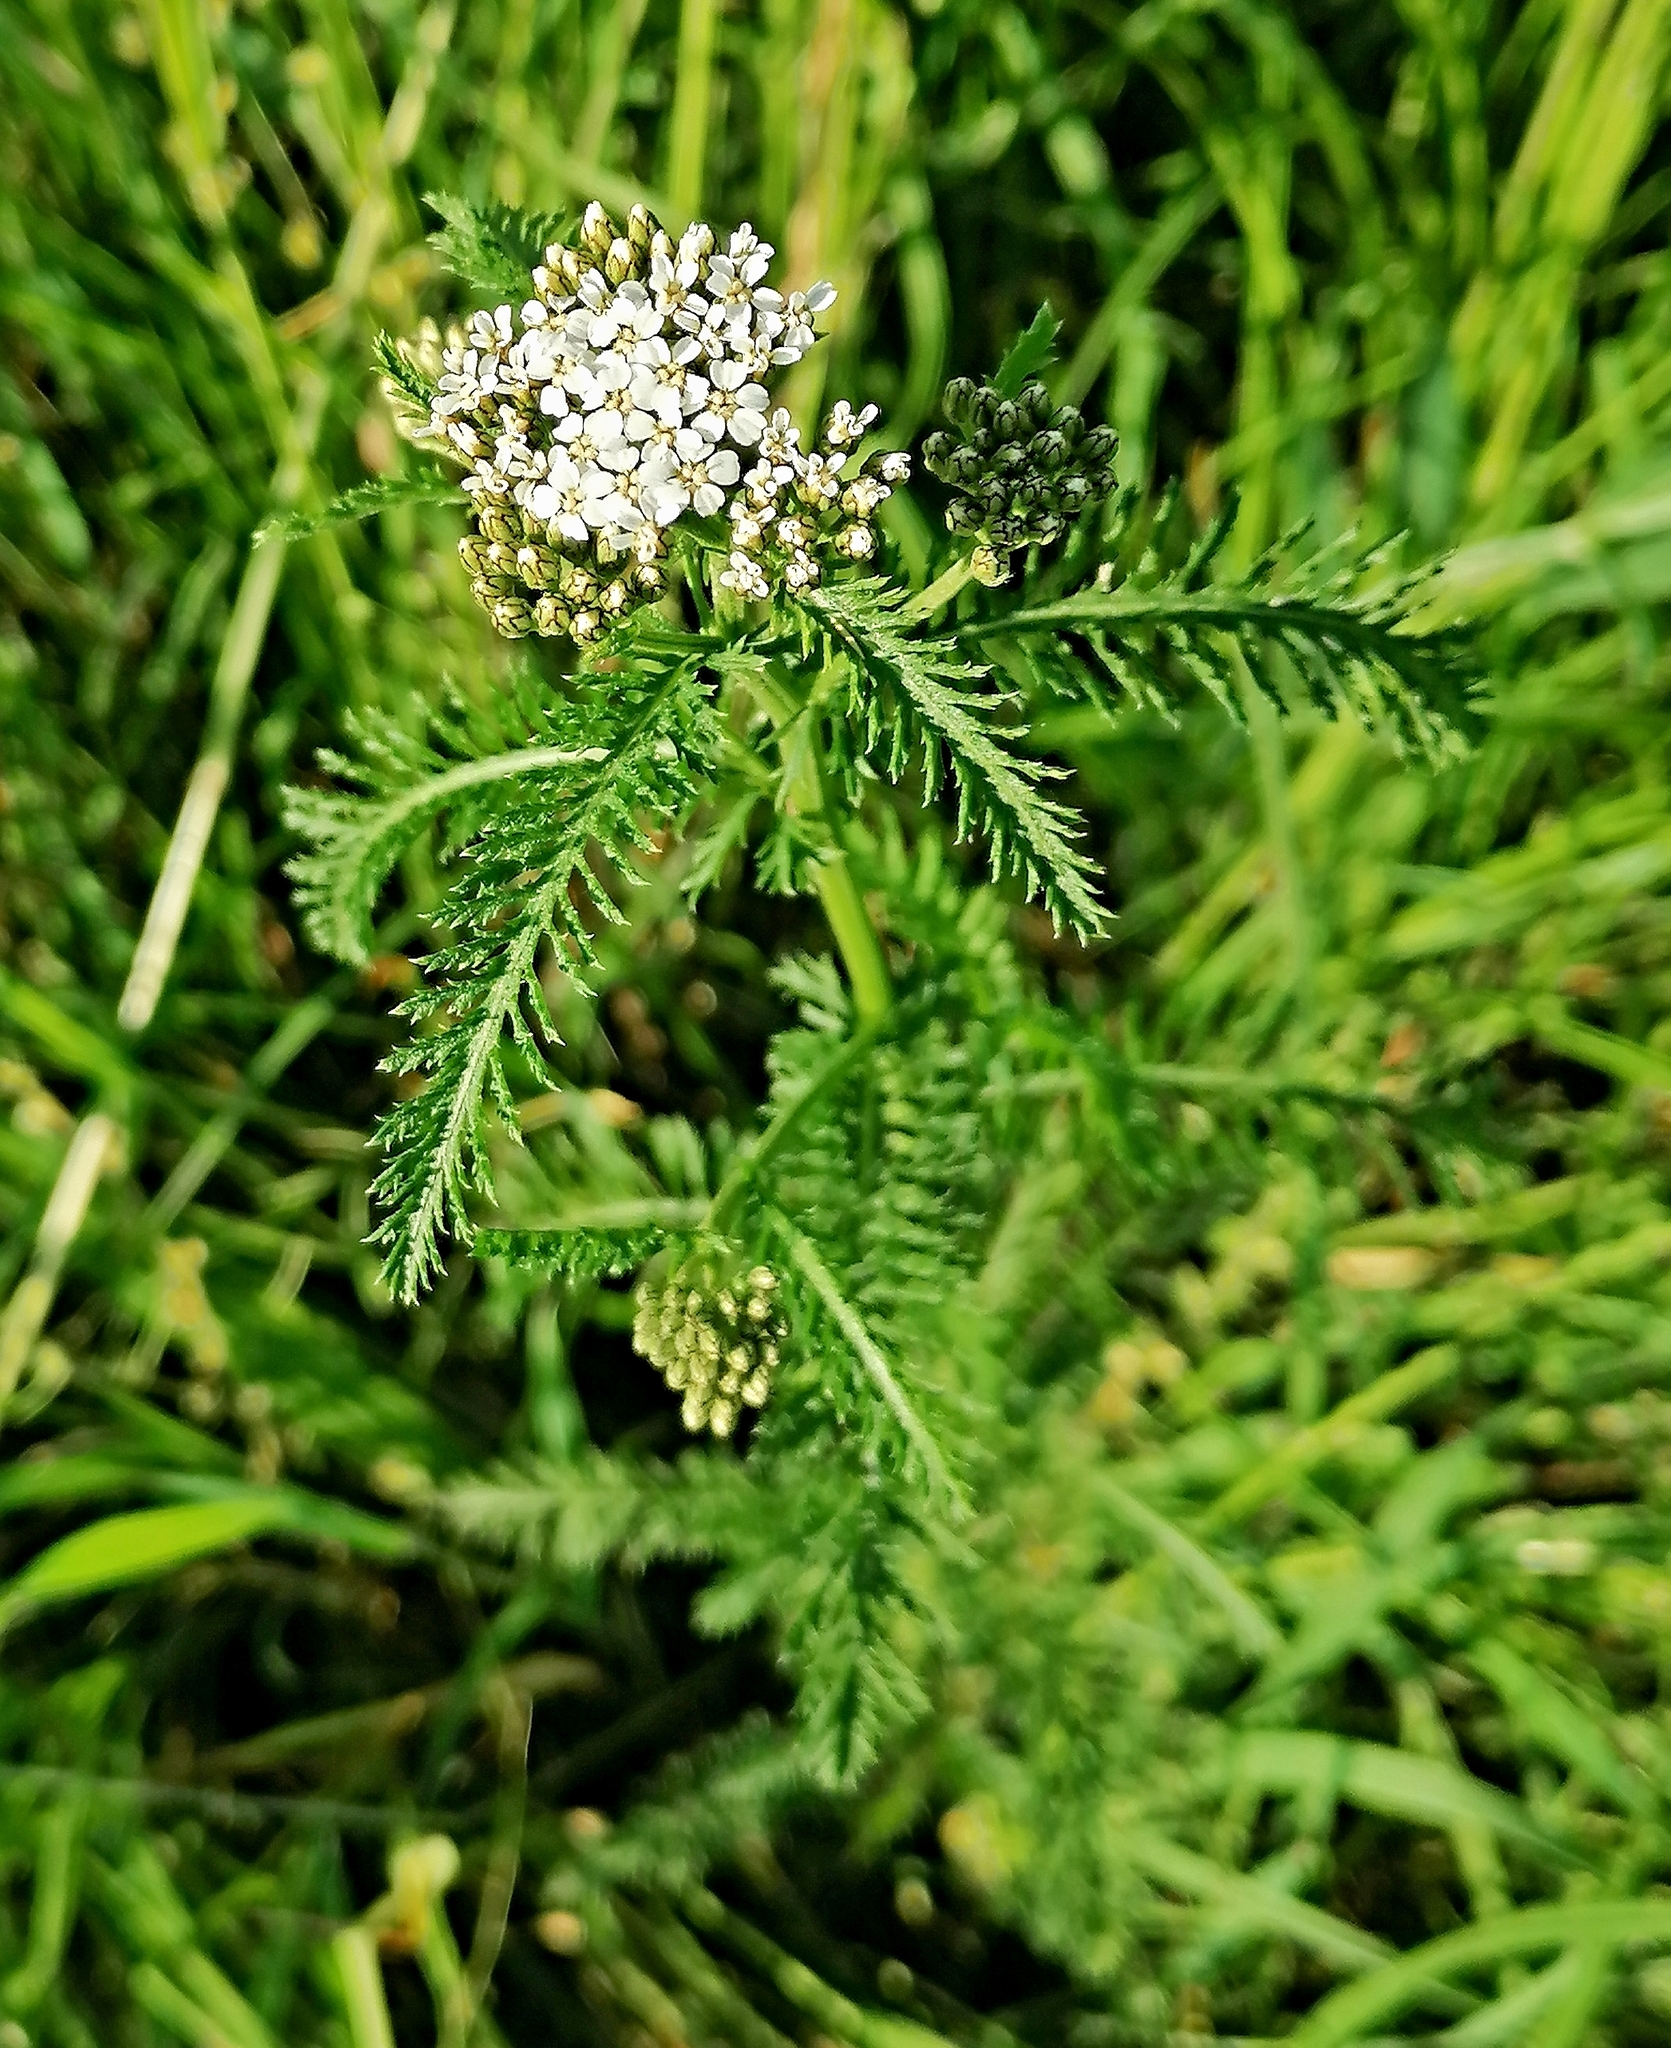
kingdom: Plantae
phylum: Tracheophyta
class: Magnoliopsida
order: Asterales
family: Asteraceae
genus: Achillea
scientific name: Achillea millefolium
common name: Yarrow
